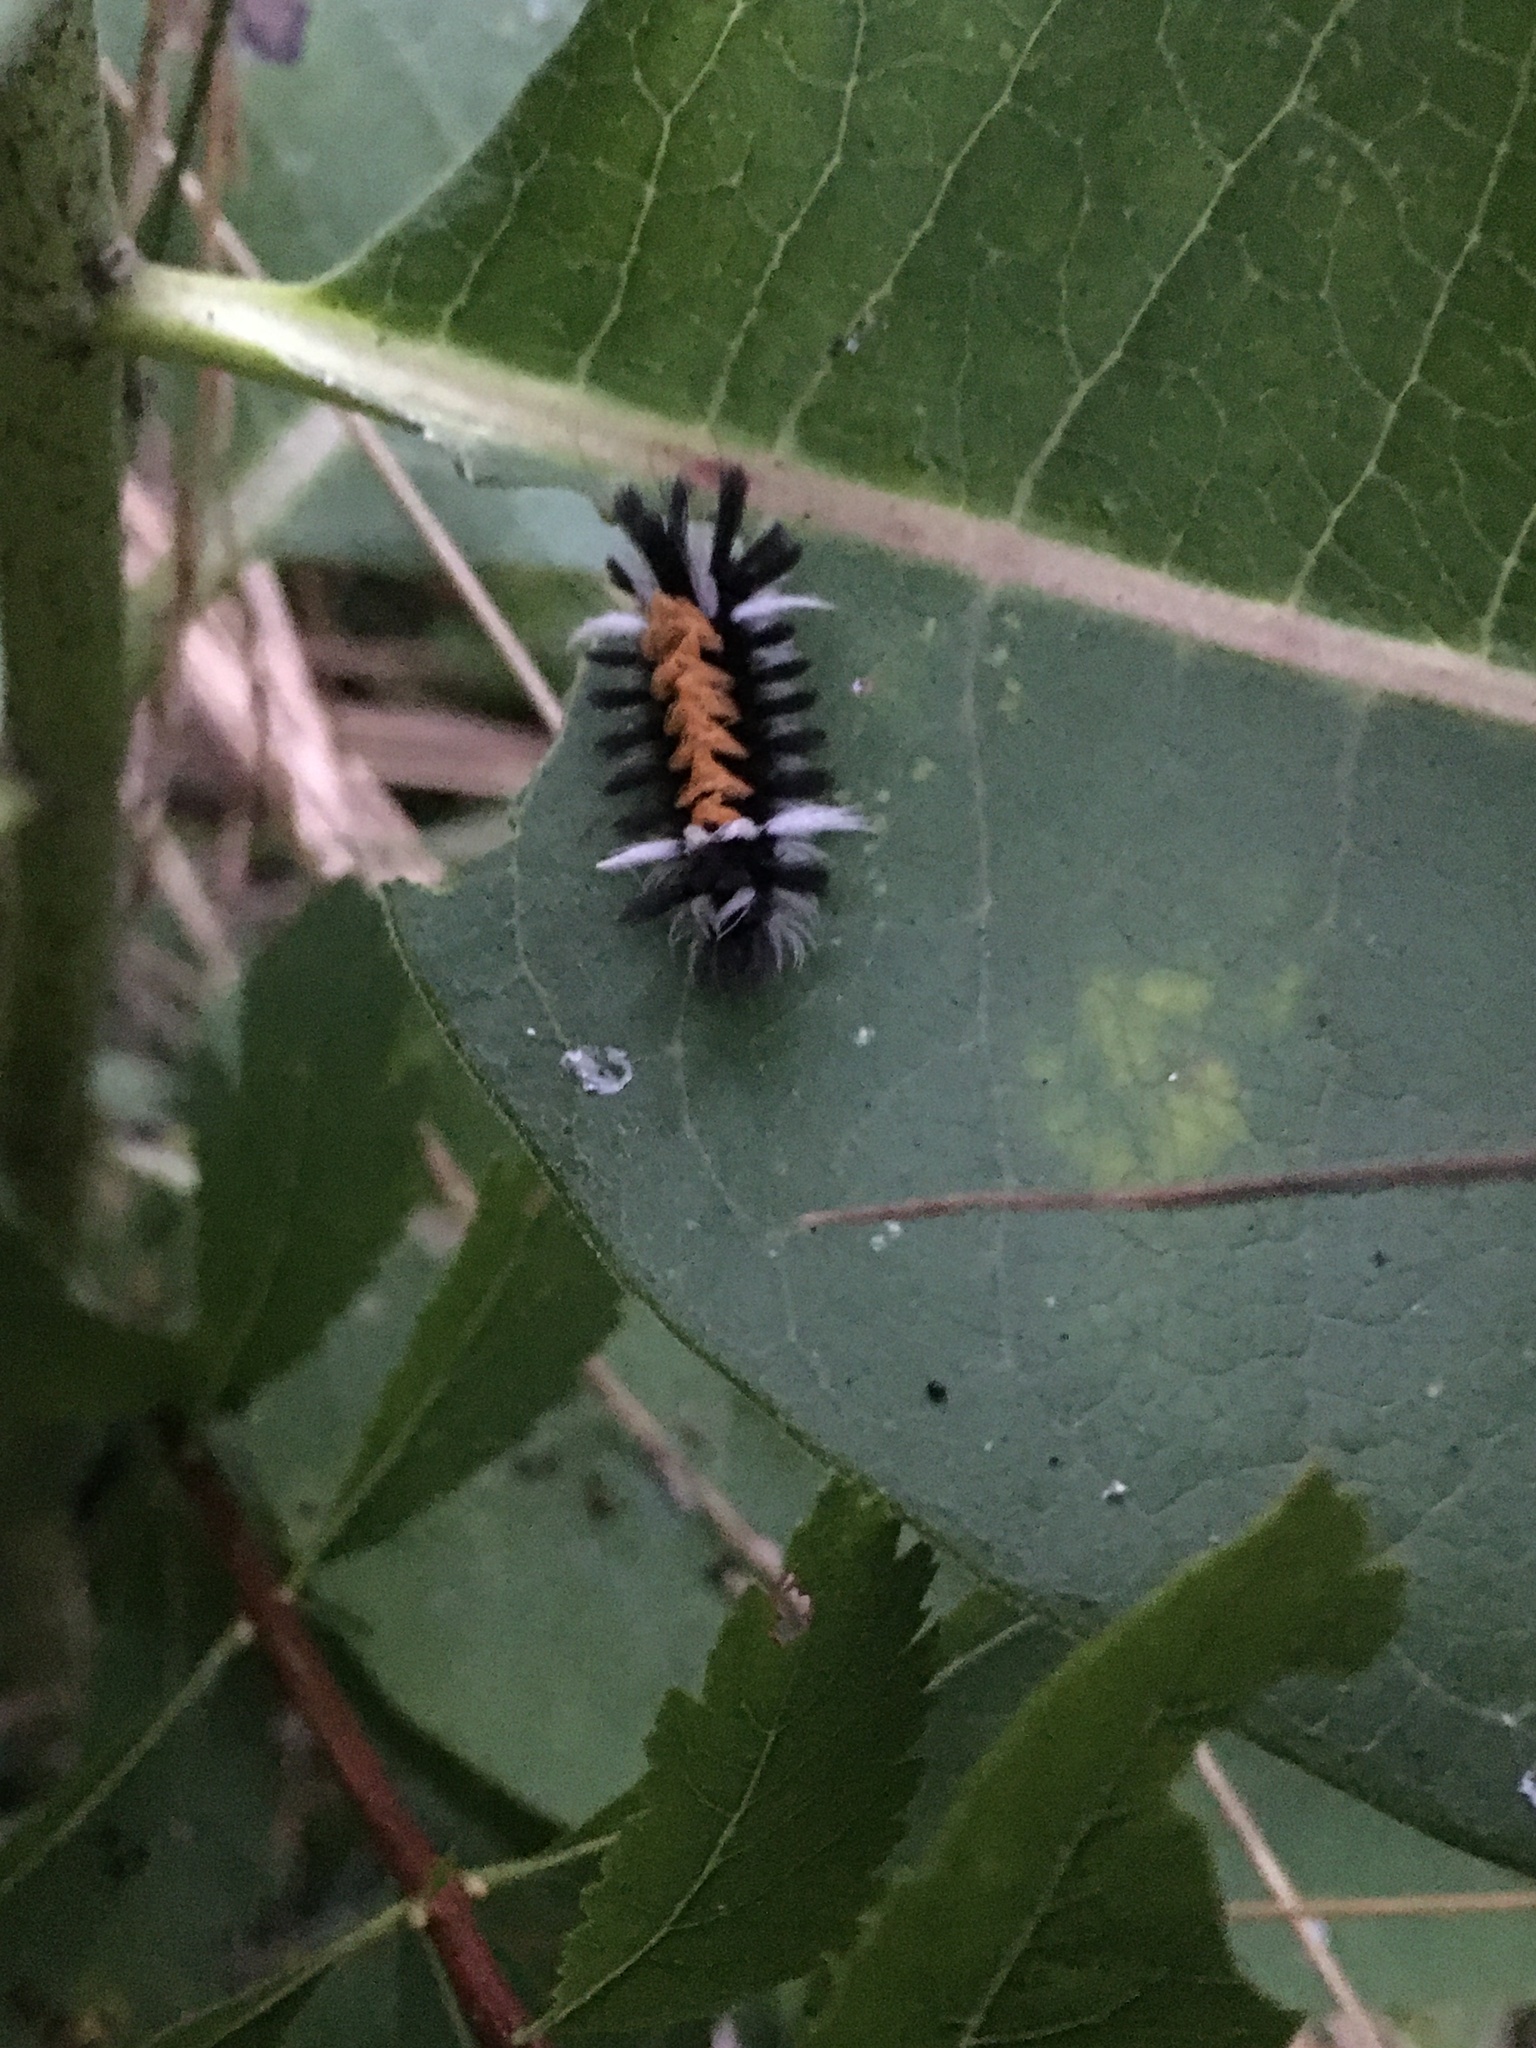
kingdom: Animalia
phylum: Arthropoda
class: Insecta
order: Lepidoptera
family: Erebidae
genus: Euchaetes
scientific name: Euchaetes egle
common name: Milkweed tussock moth
